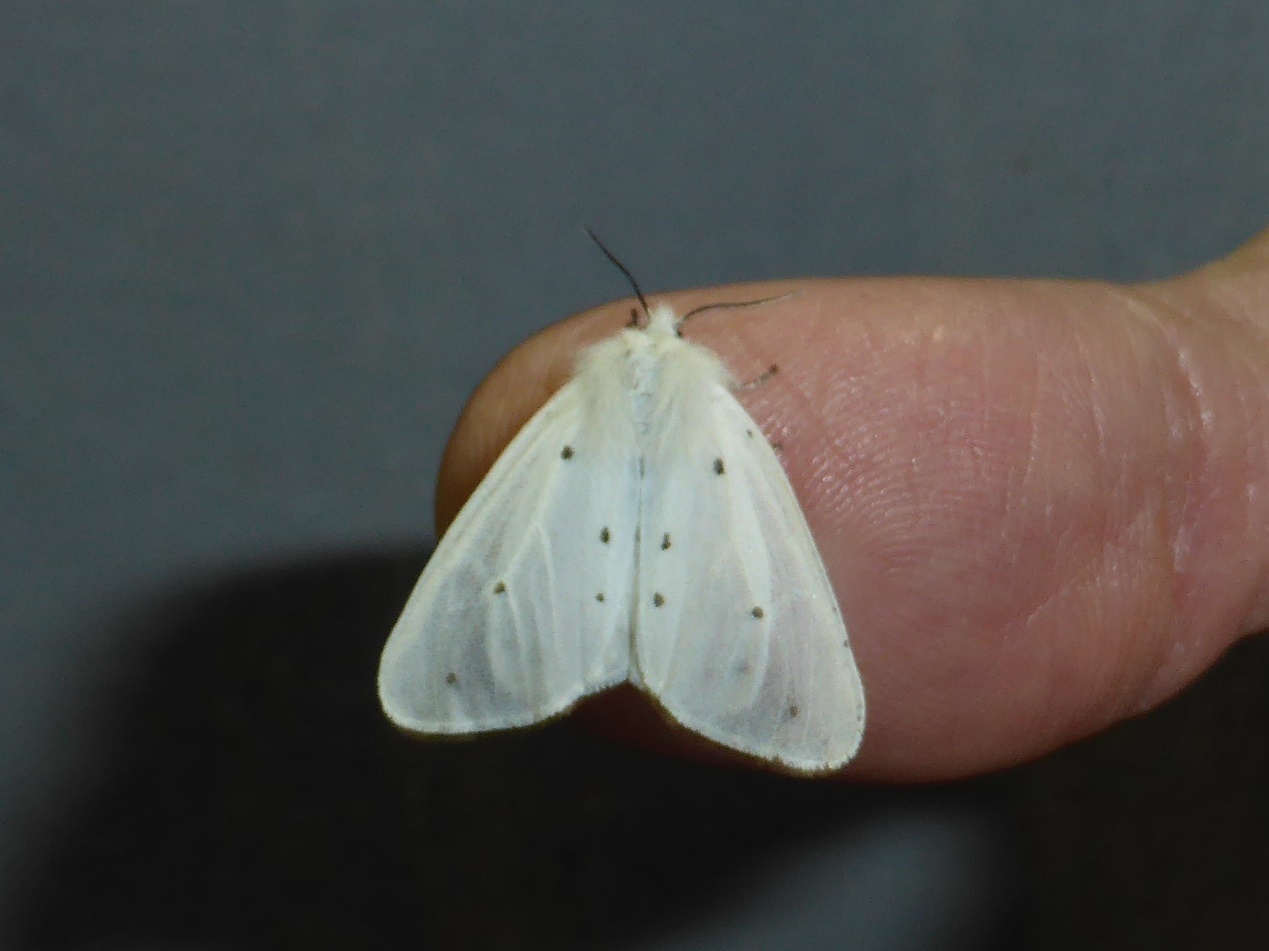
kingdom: Animalia
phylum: Arthropoda
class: Insecta
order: Lepidoptera
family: Erebidae
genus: Diaphora
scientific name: Diaphora mendica
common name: Muslin moth
